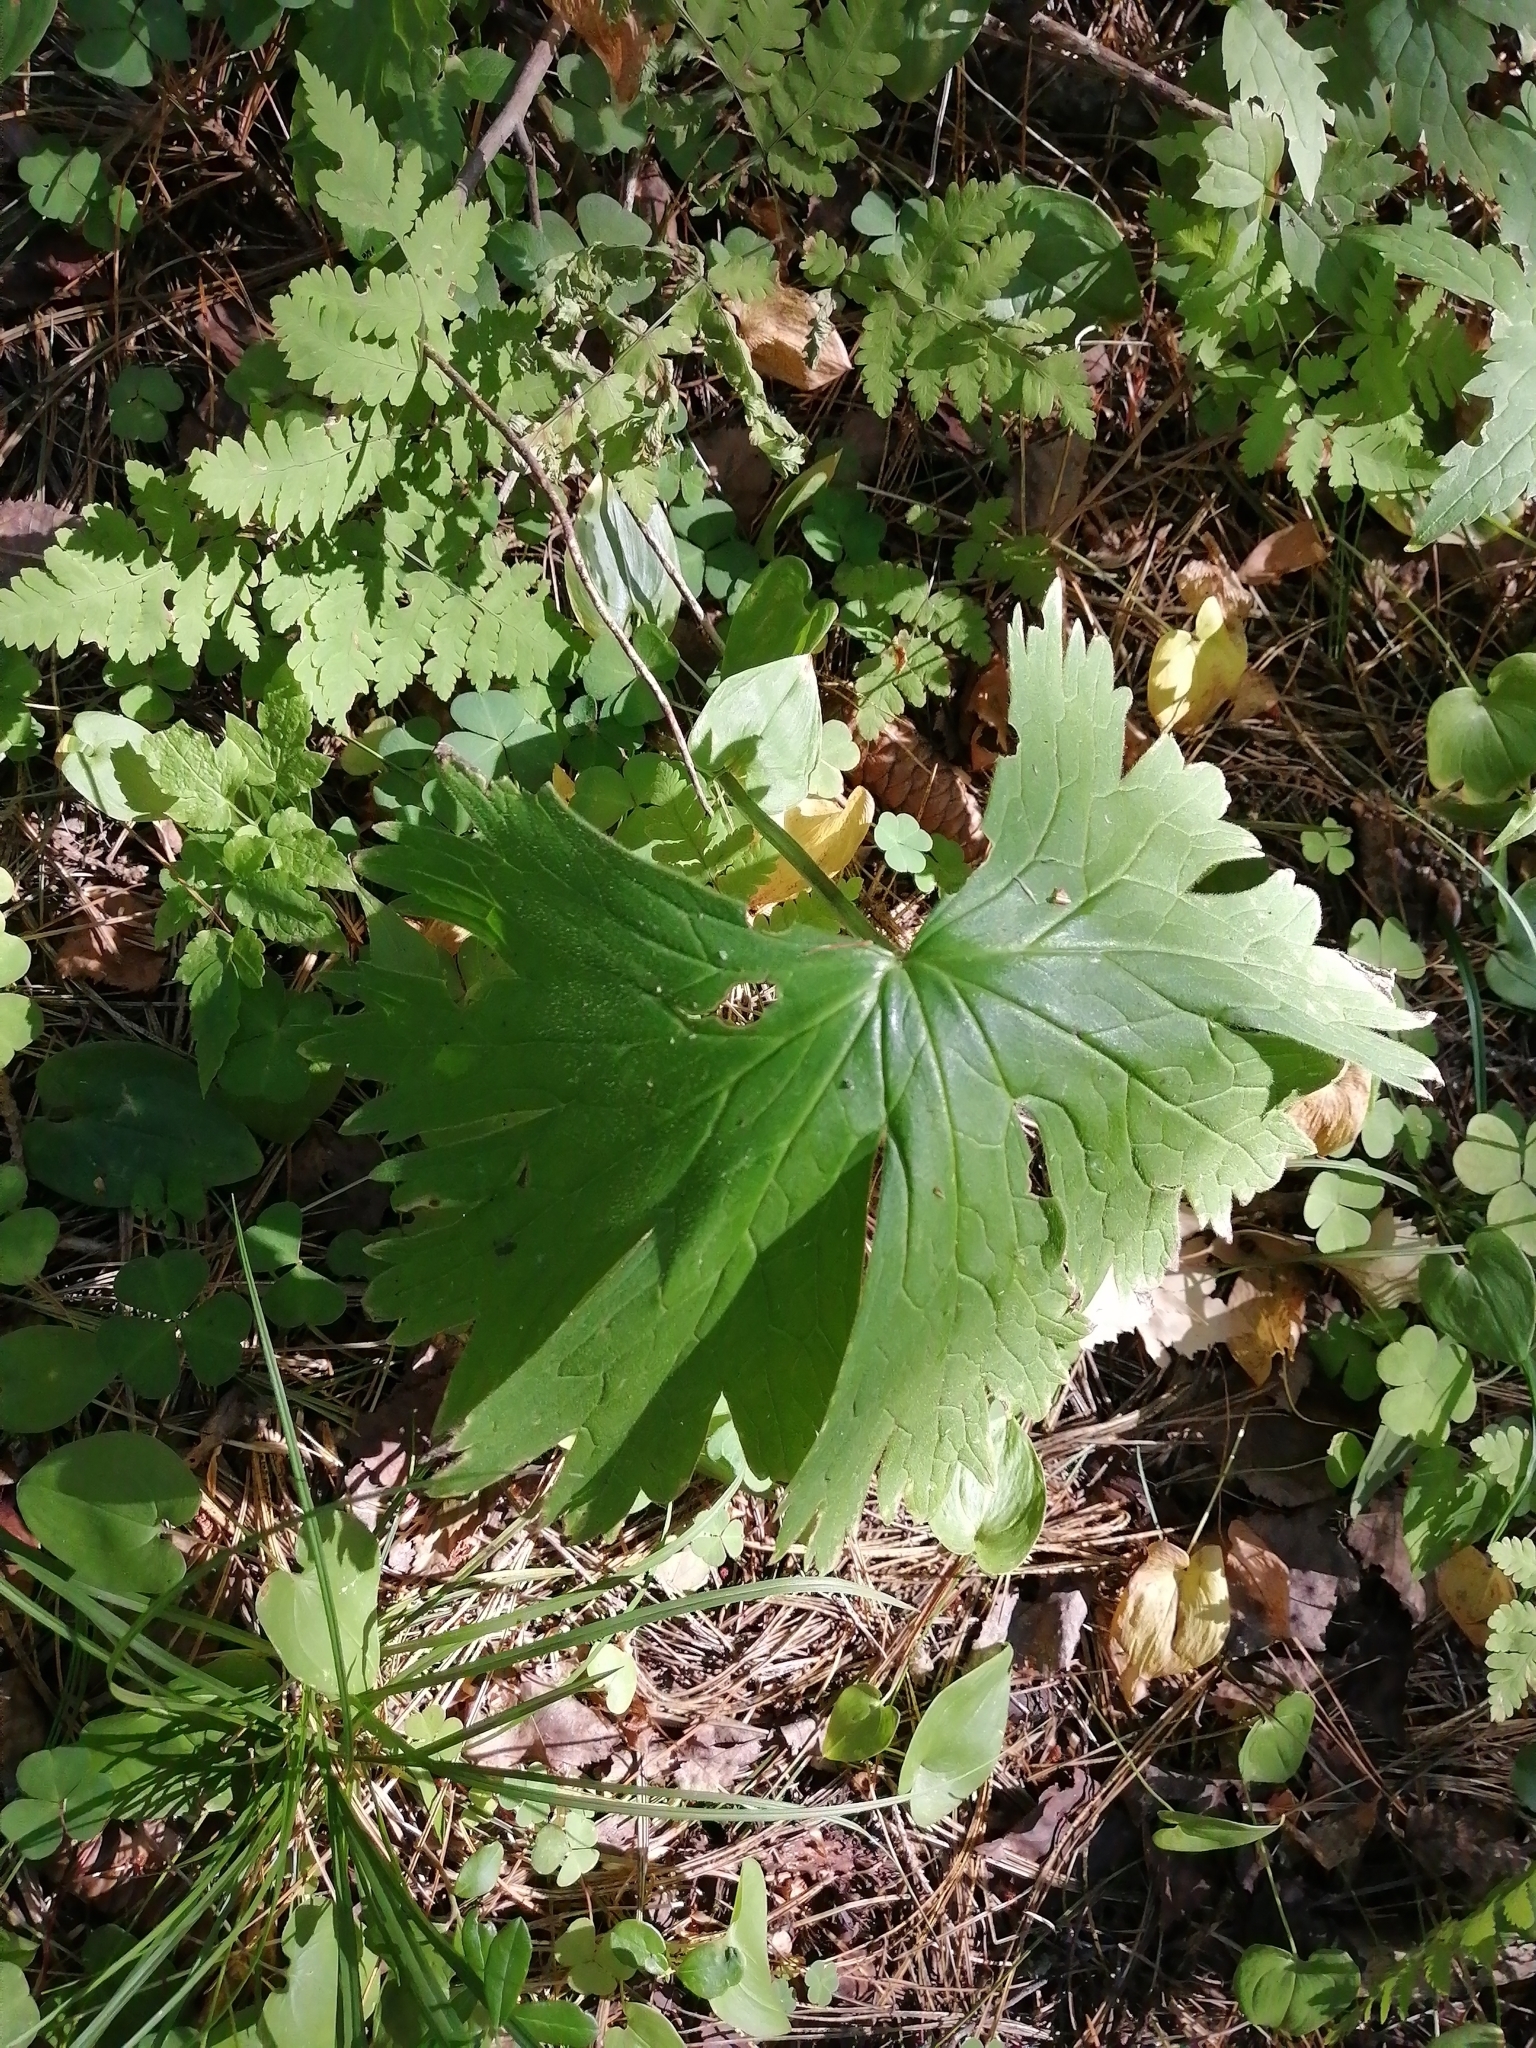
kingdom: Plantae
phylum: Tracheophyta
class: Magnoliopsida
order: Ranunculales
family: Ranunculaceae
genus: Aconitum
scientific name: Aconitum septentrionale
